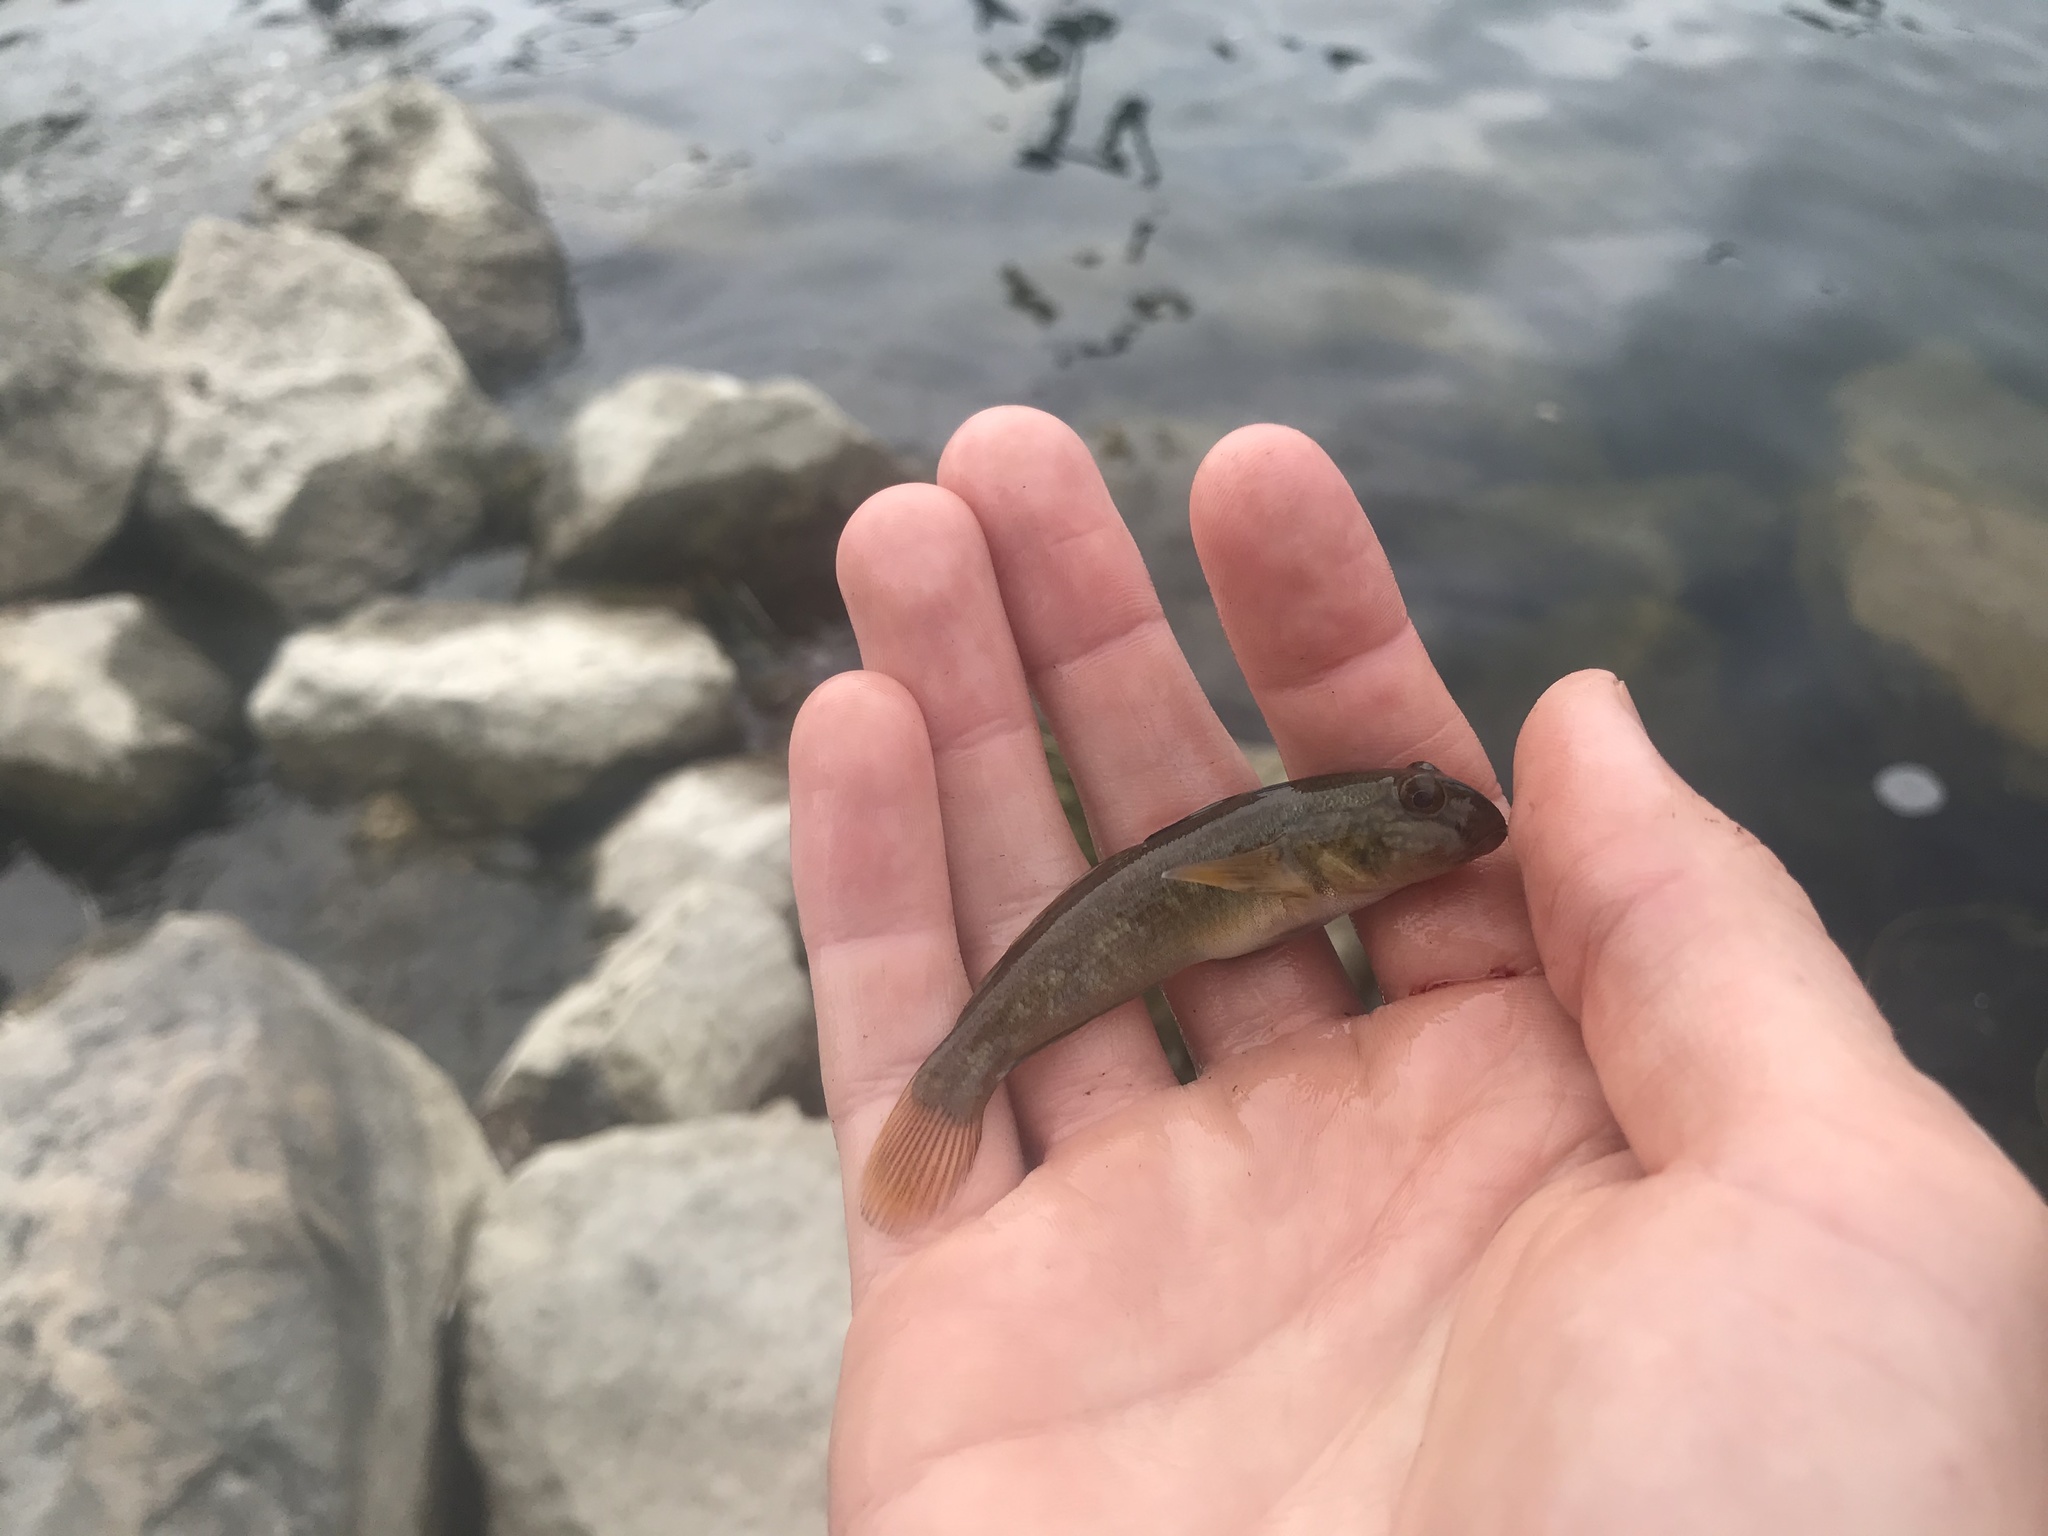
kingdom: Animalia
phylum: Chordata
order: Perciformes
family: Gobiidae
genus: Neogobius
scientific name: Neogobius melanostomus
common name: Round goby
